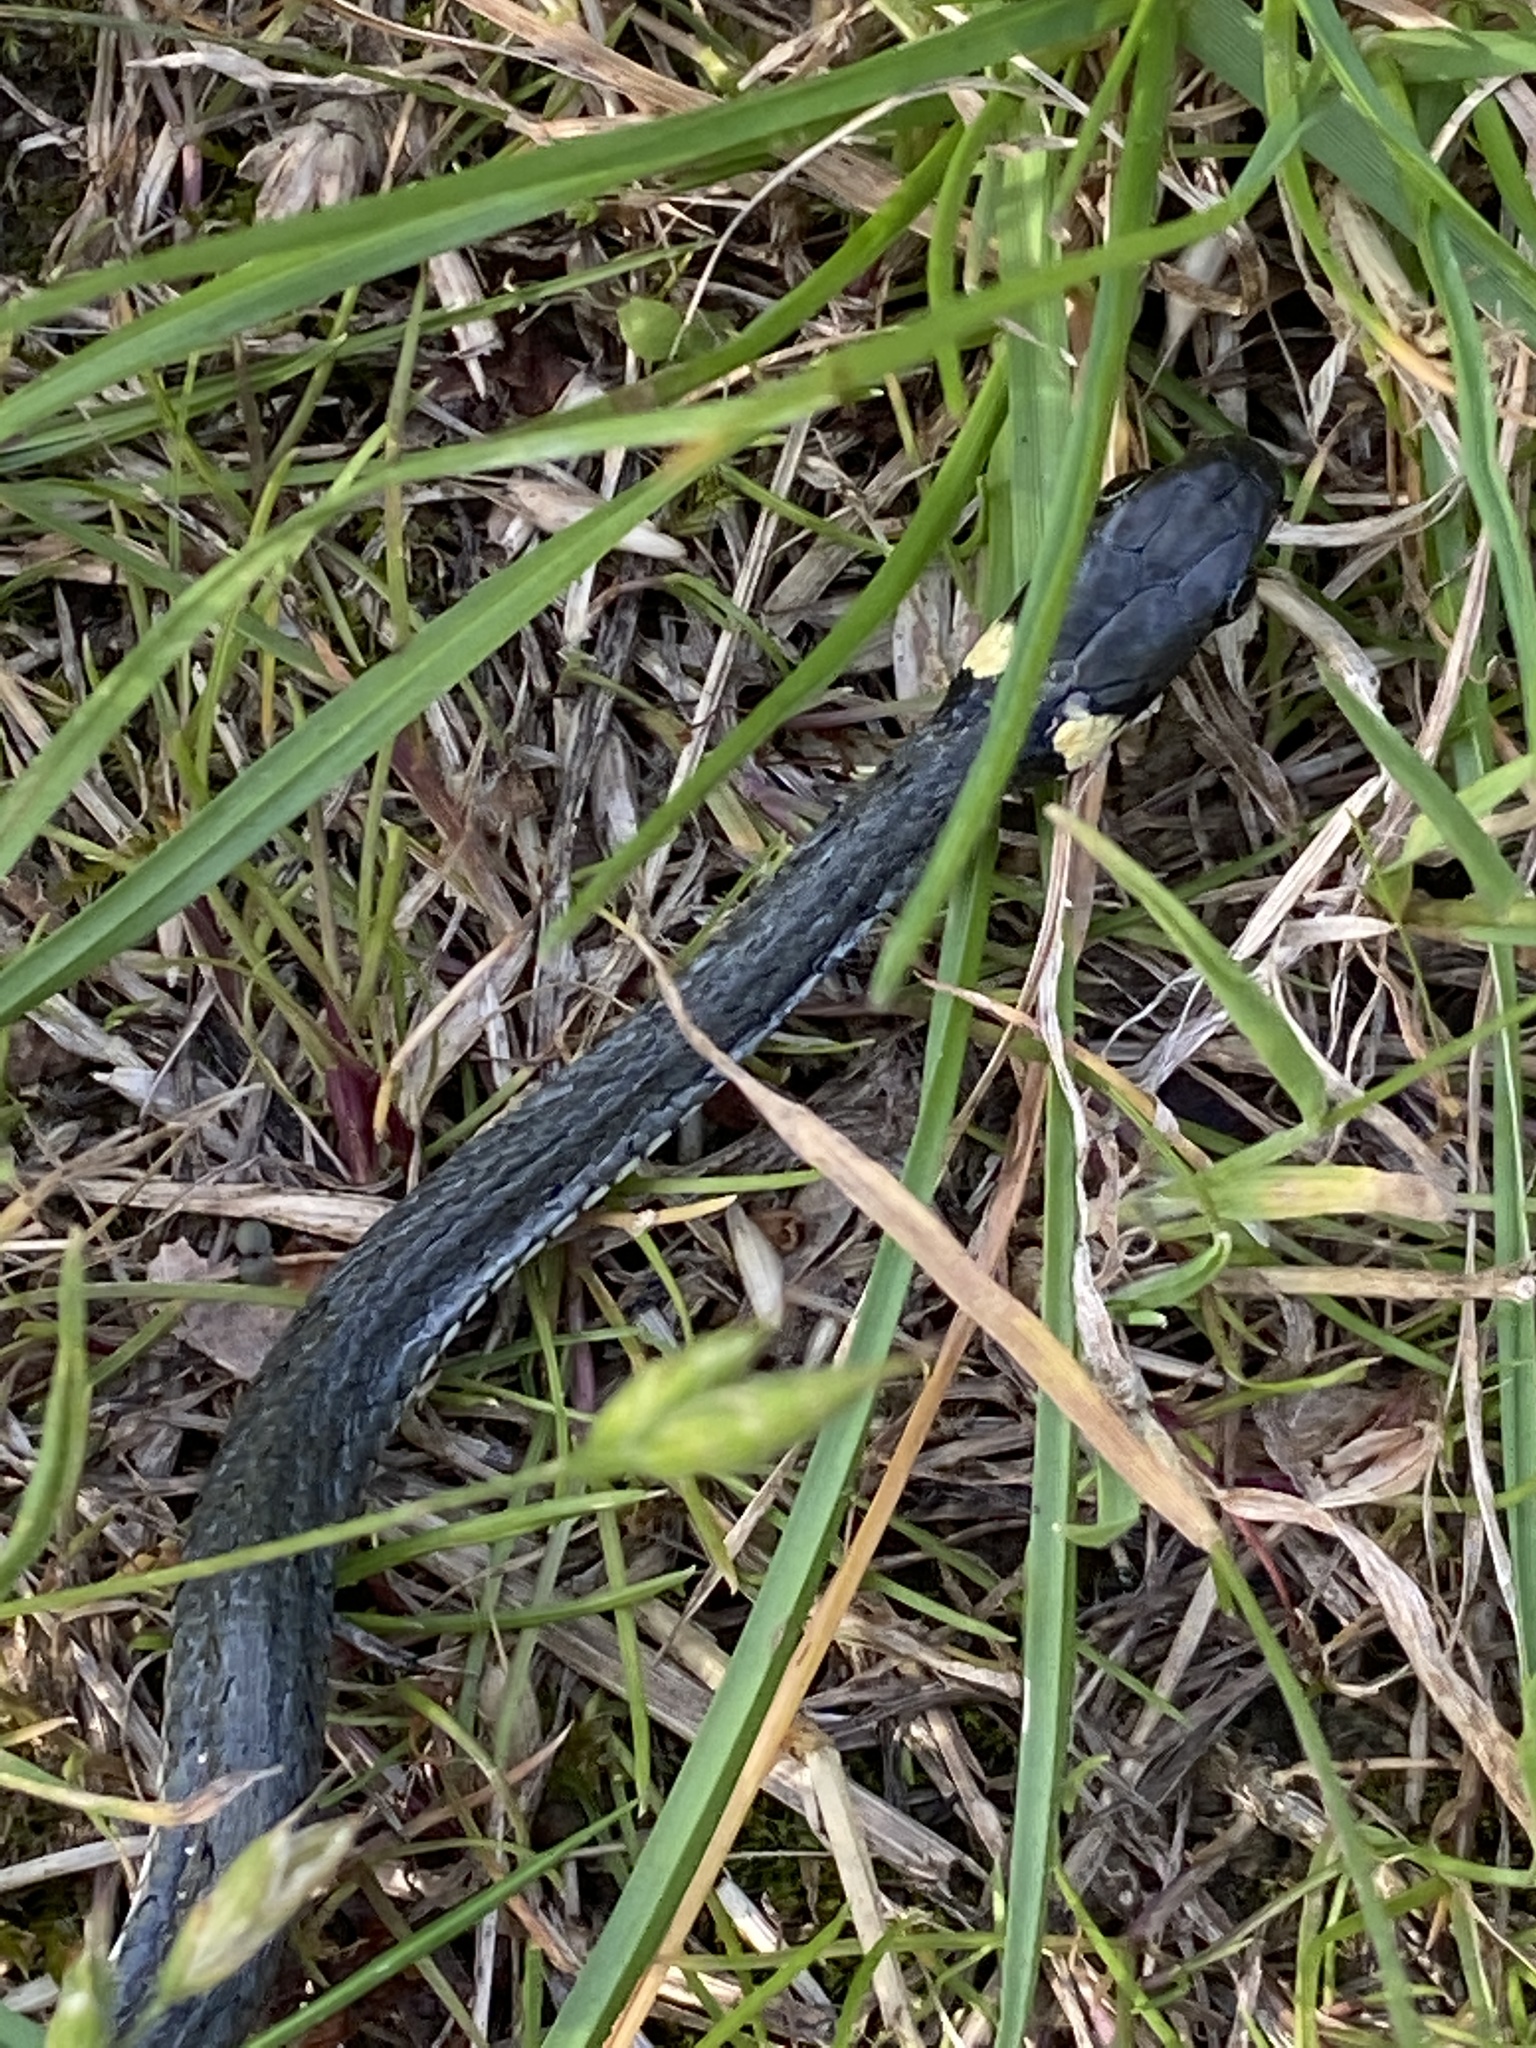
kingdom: Animalia
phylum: Chordata
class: Squamata
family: Colubridae
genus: Natrix
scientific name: Natrix natrix
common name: Grass snake
